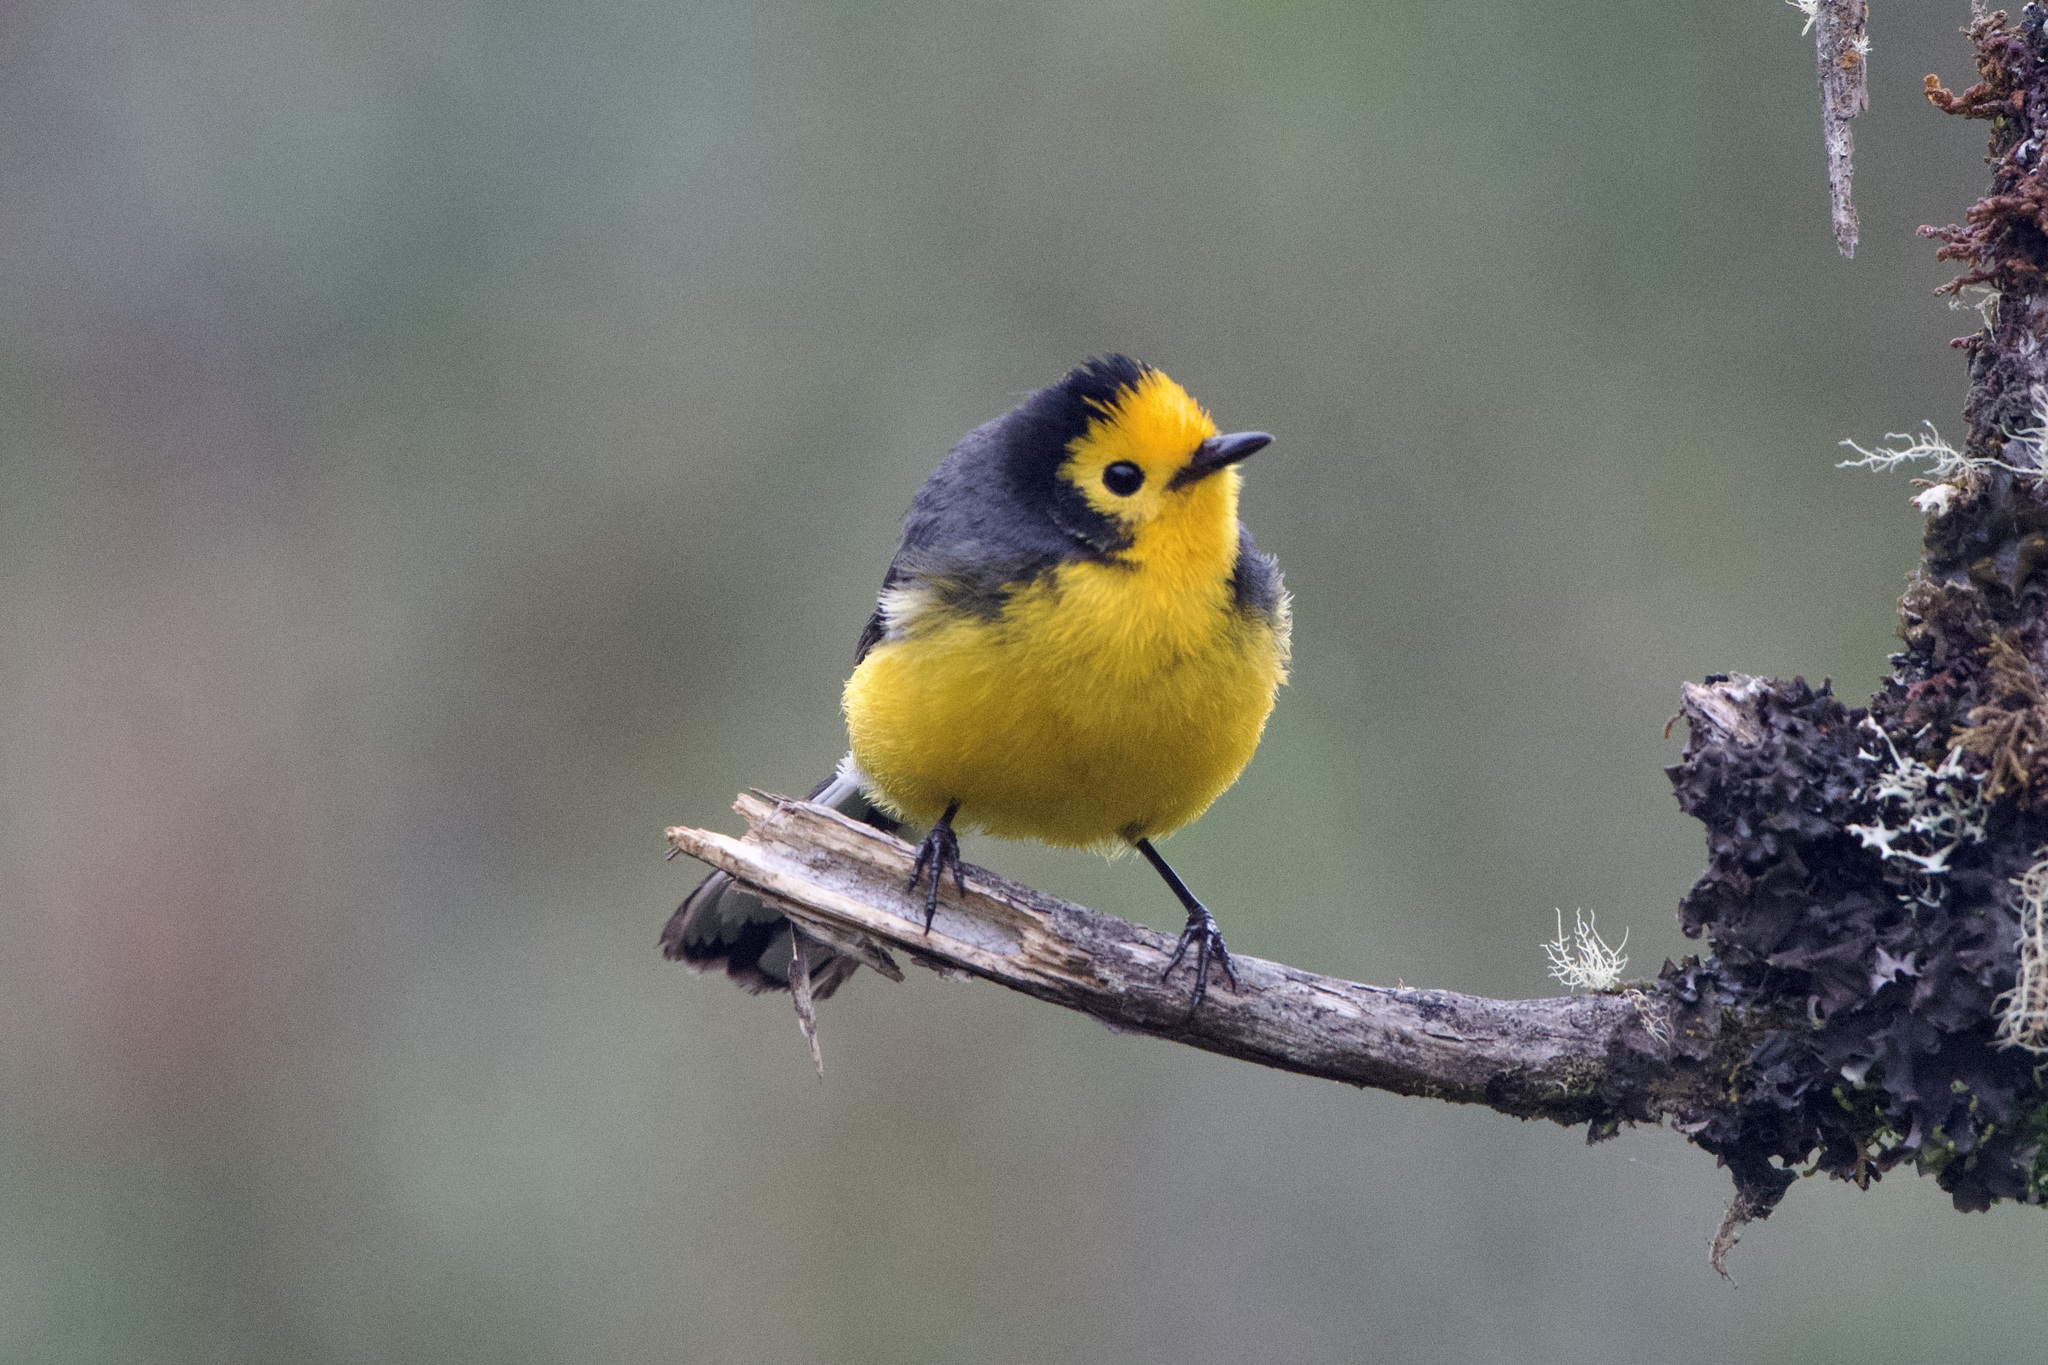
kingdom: Animalia
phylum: Chordata
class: Aves
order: Passeriformes
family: Parulidae
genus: Myioborus
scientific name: Myioborus ornatus
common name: Golden-fronted whitestart
